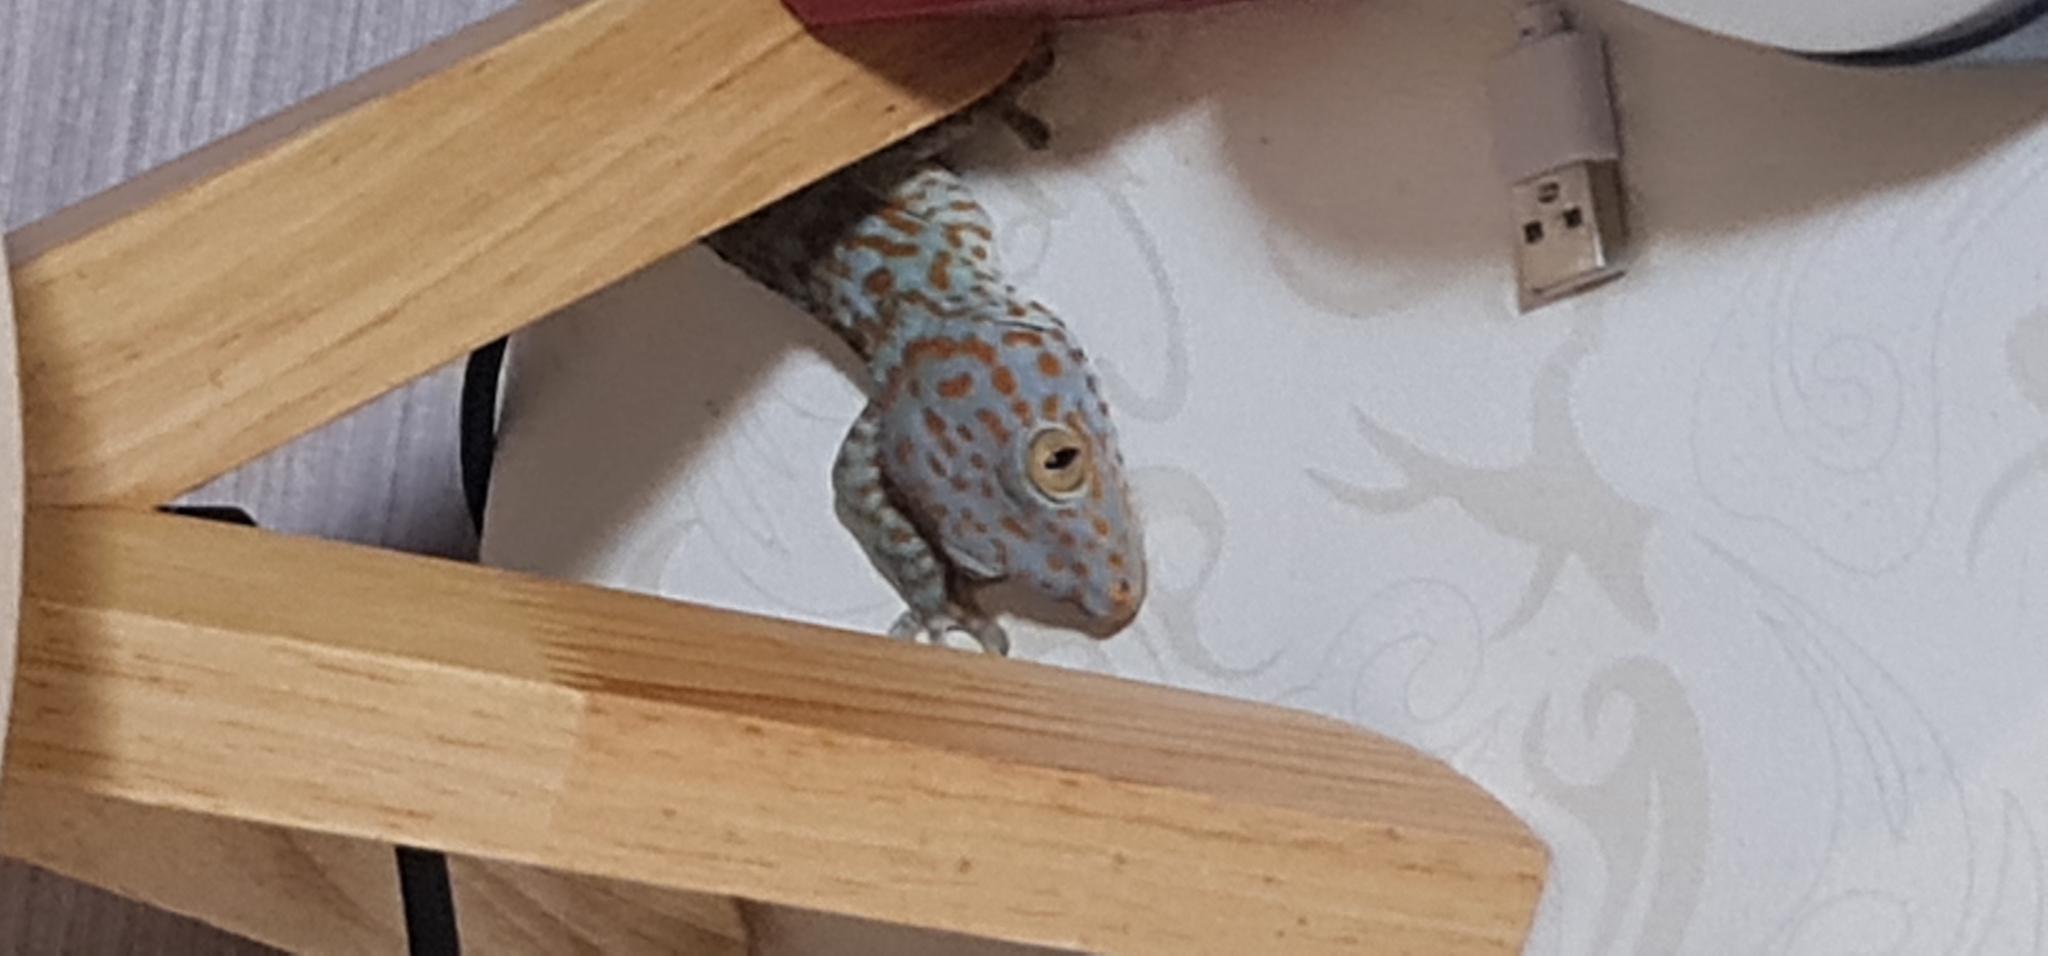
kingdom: Animalia
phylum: Chordata
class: Squamata
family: Gekkonidae
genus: Gekko
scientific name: Gekko gecko
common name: Tokay gecko
